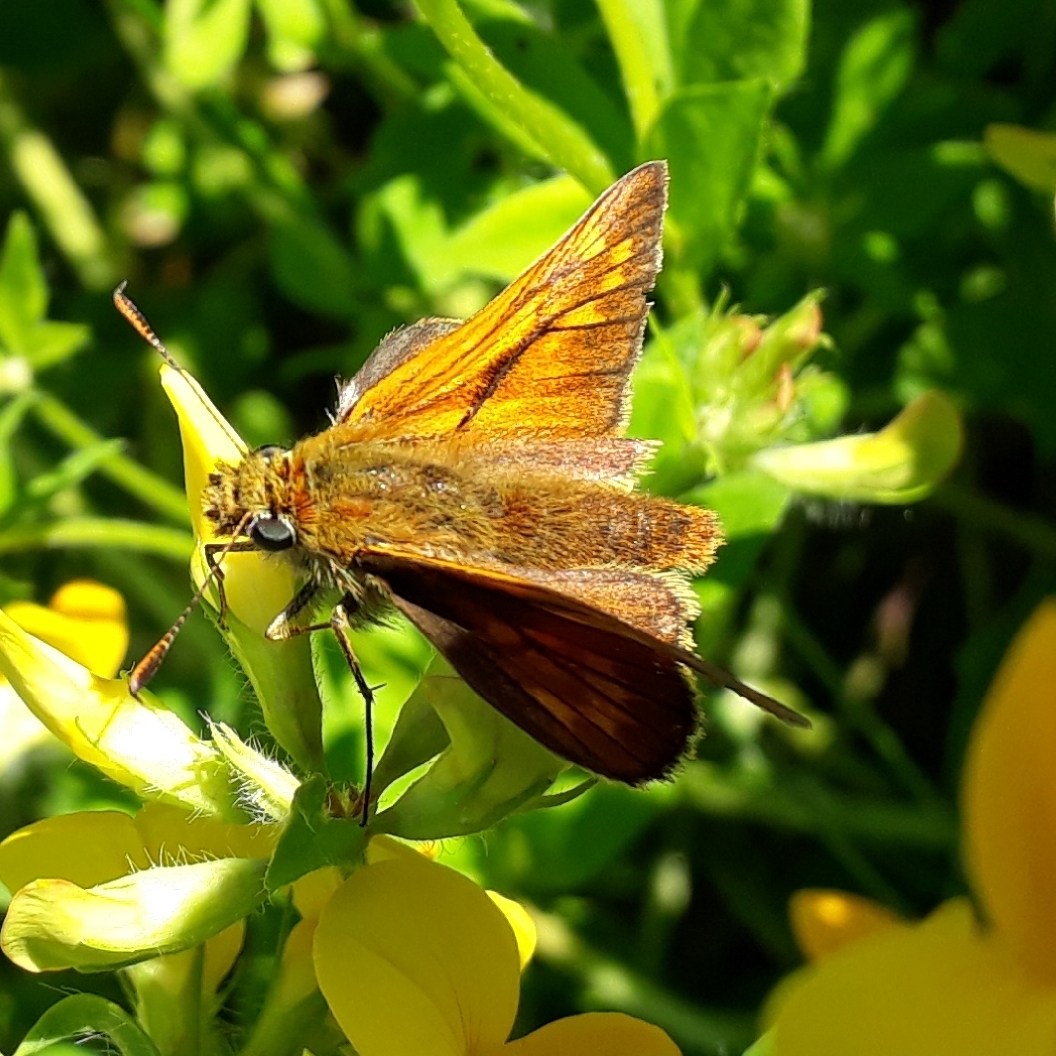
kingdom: Animalia
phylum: Arthropoda
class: Insecta
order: Lepidoptera
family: Hesperiidae
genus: Ochlodes
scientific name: Ochlodes venata
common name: Large skipper
